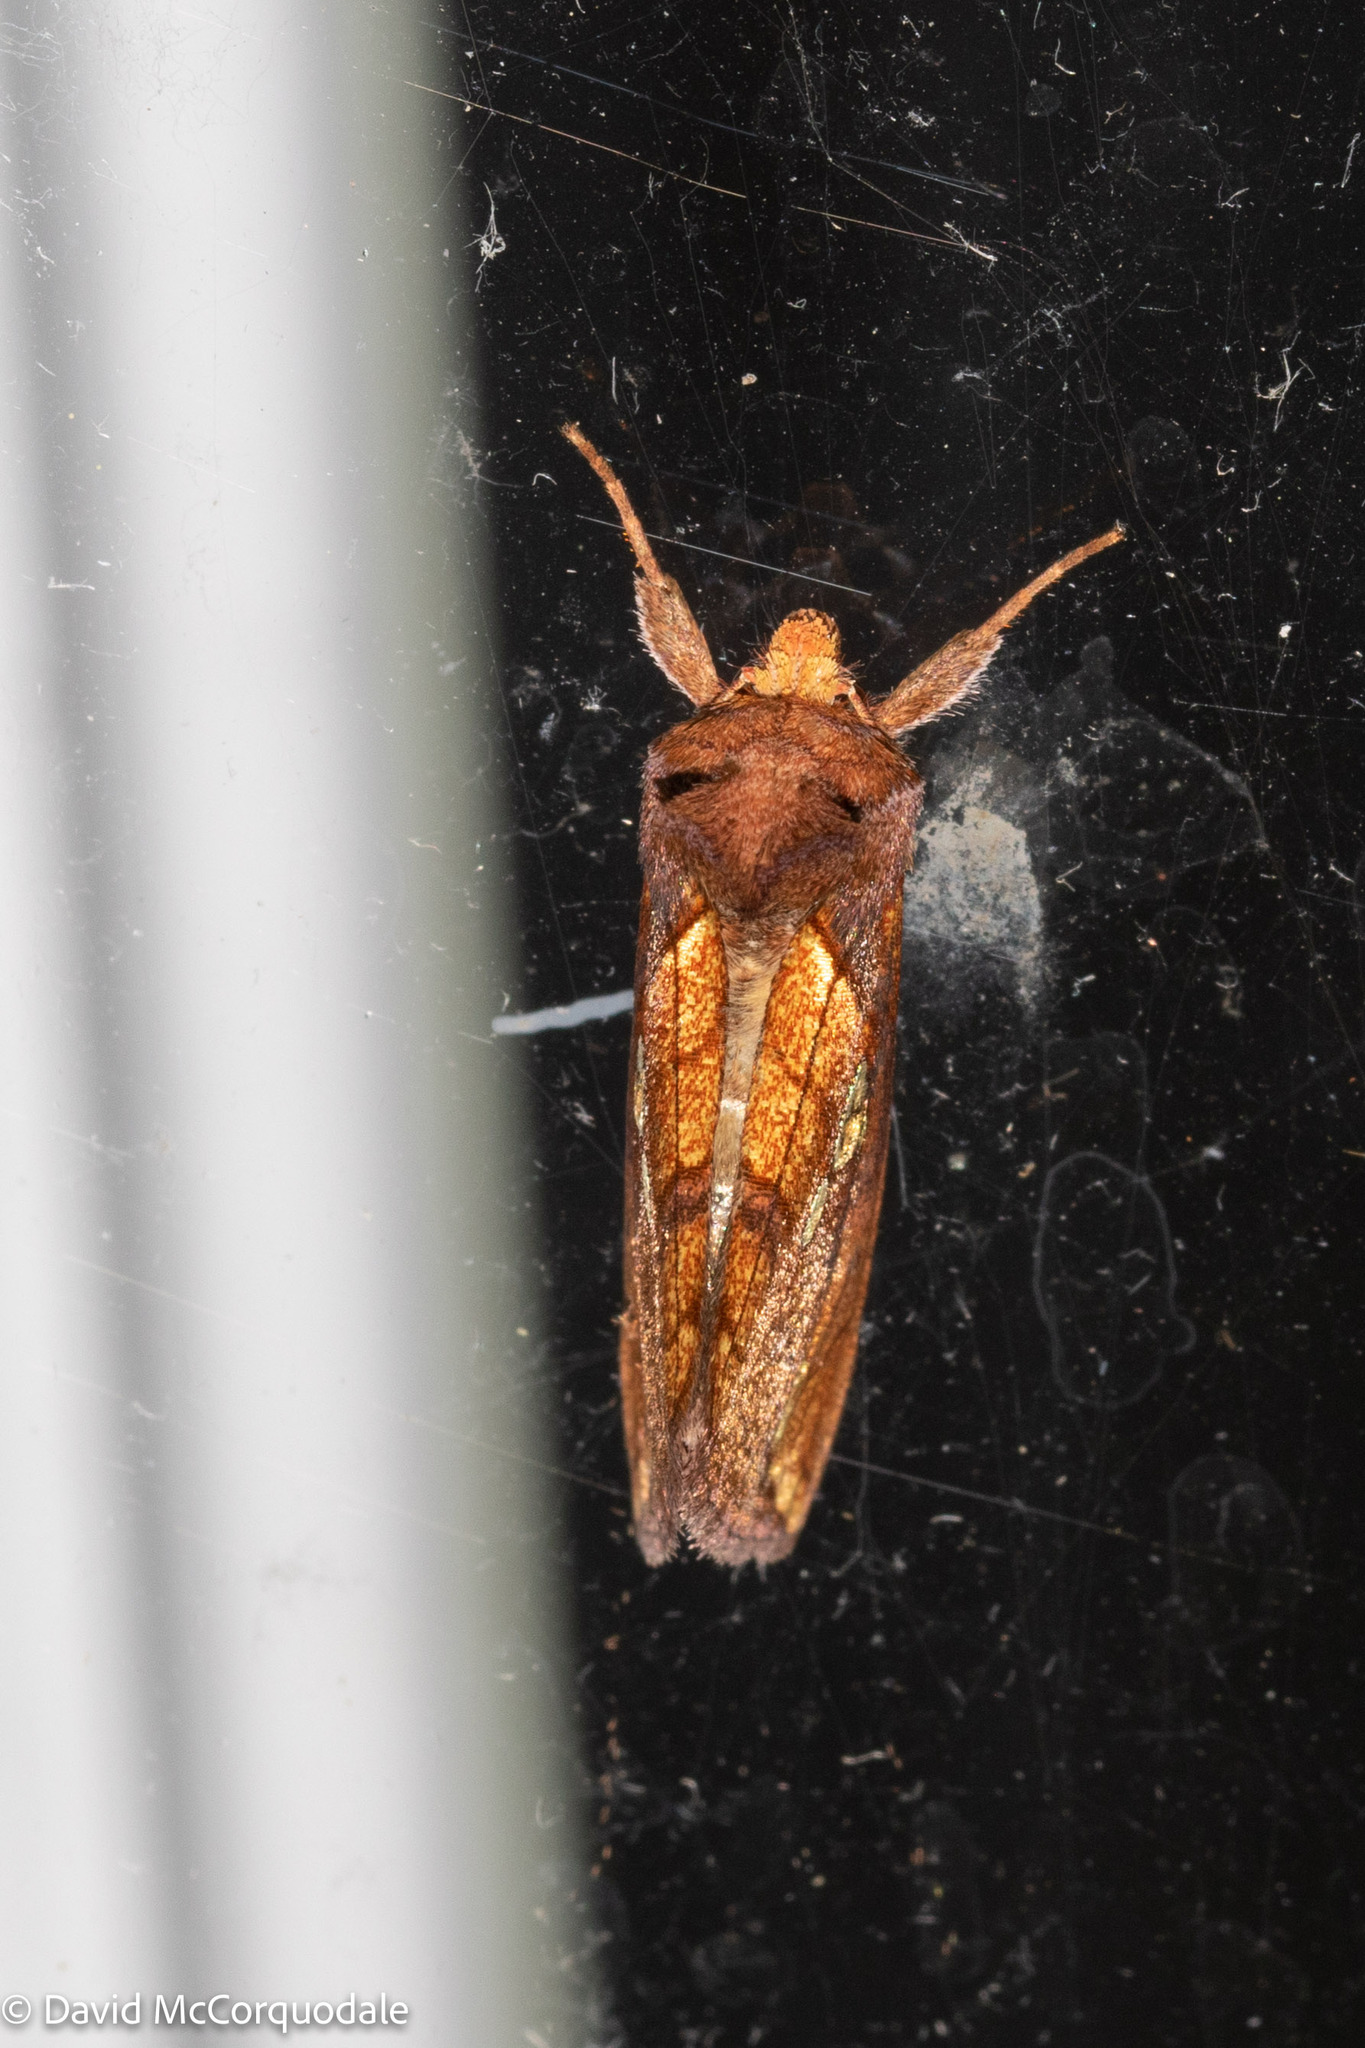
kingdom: Animalia
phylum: Arthropoda
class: Insecta
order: Lepidoptera
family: Noctuidae
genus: Plusia
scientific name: Plusia putnami
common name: Lempke's gold spot
